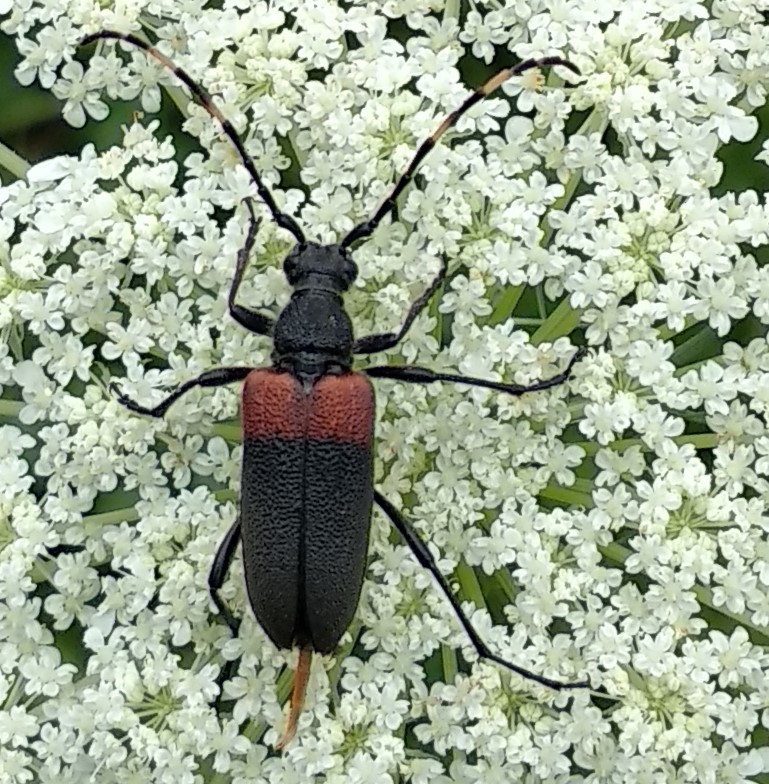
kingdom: Animalia
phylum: Arthropoda
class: Insecta
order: Coleoptera
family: Cerambycidae
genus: Stictoleptura
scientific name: Stictoleptura canadensis
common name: Red-shouldered pine borer
